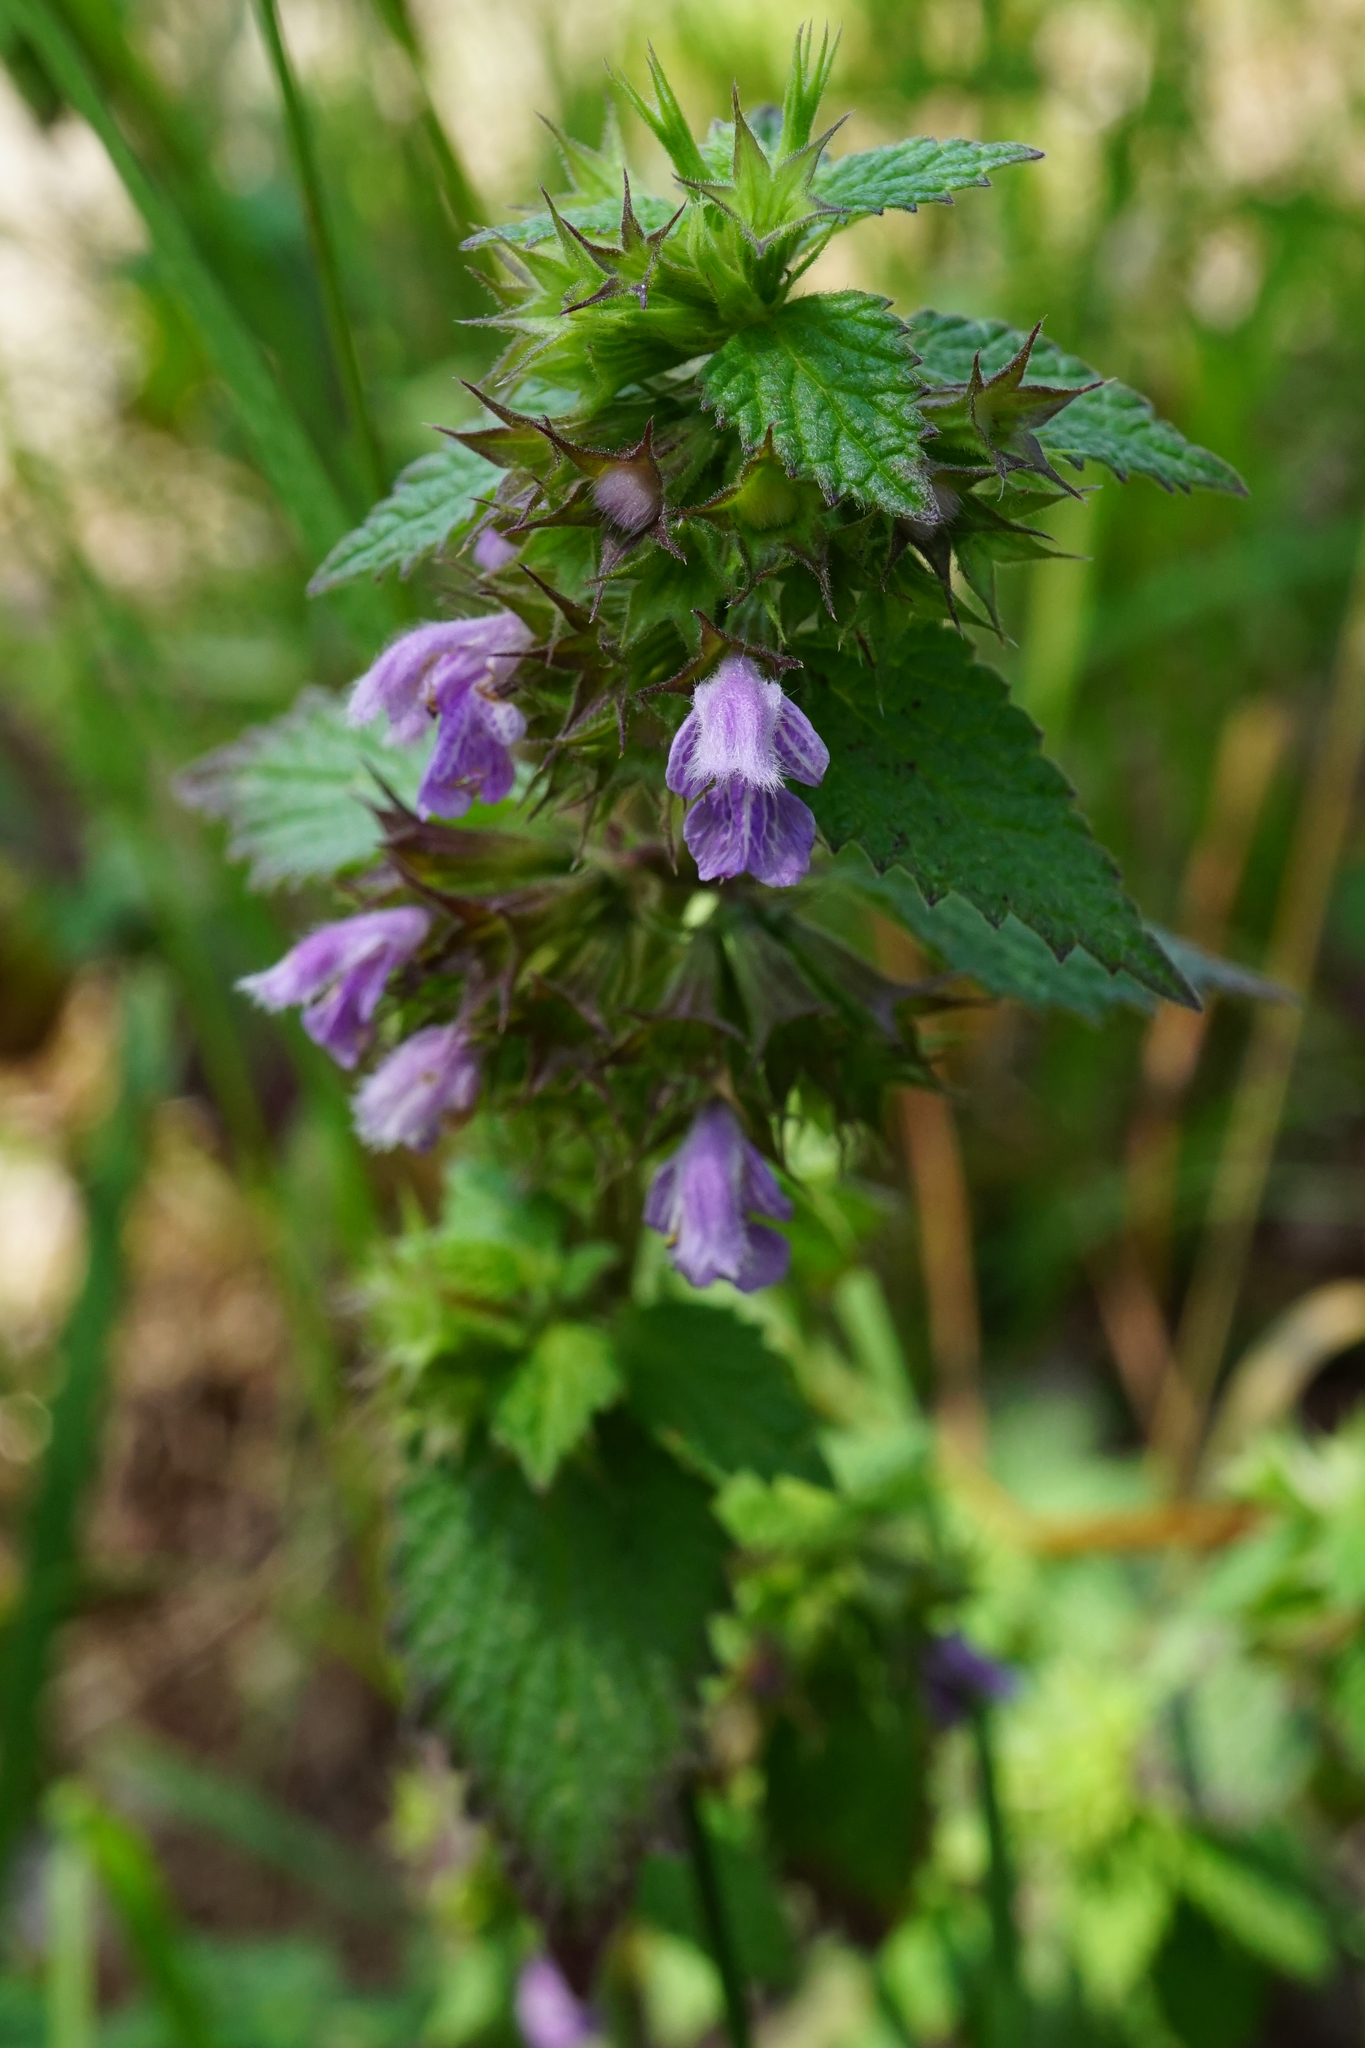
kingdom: Plantae
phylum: Tracheophyta
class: Magnoliopsida
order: Lamiales
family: Lamiaceae
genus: Ballota
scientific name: Ballota nigra
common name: Black horehound
